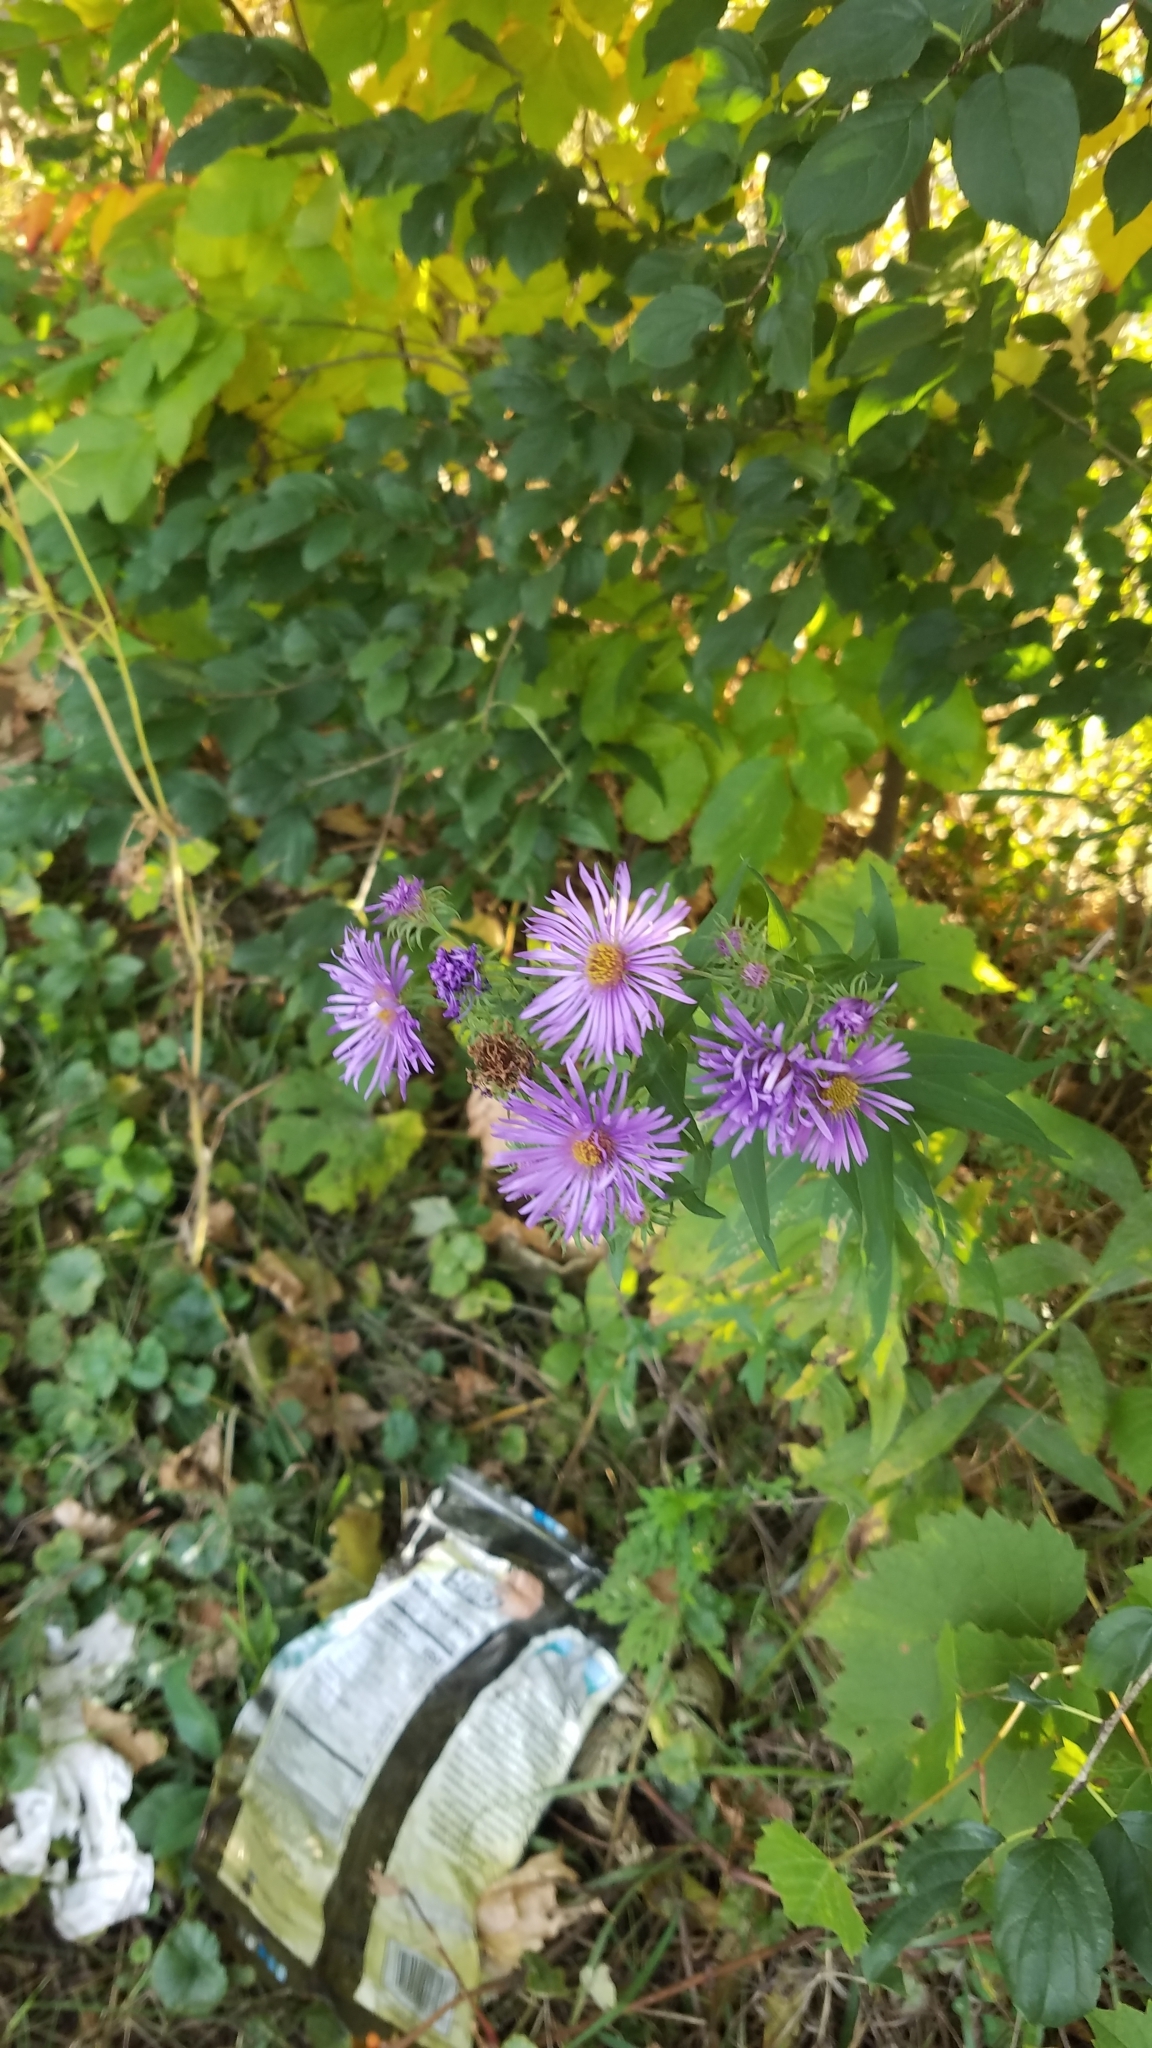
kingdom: Plantae
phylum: Tracheophyta
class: Magnoliopsida
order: Asterales
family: Asteraceae
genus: Symphyotrichum
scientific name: Symphyotrichum novae-angliae
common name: Michaelmas daisy
